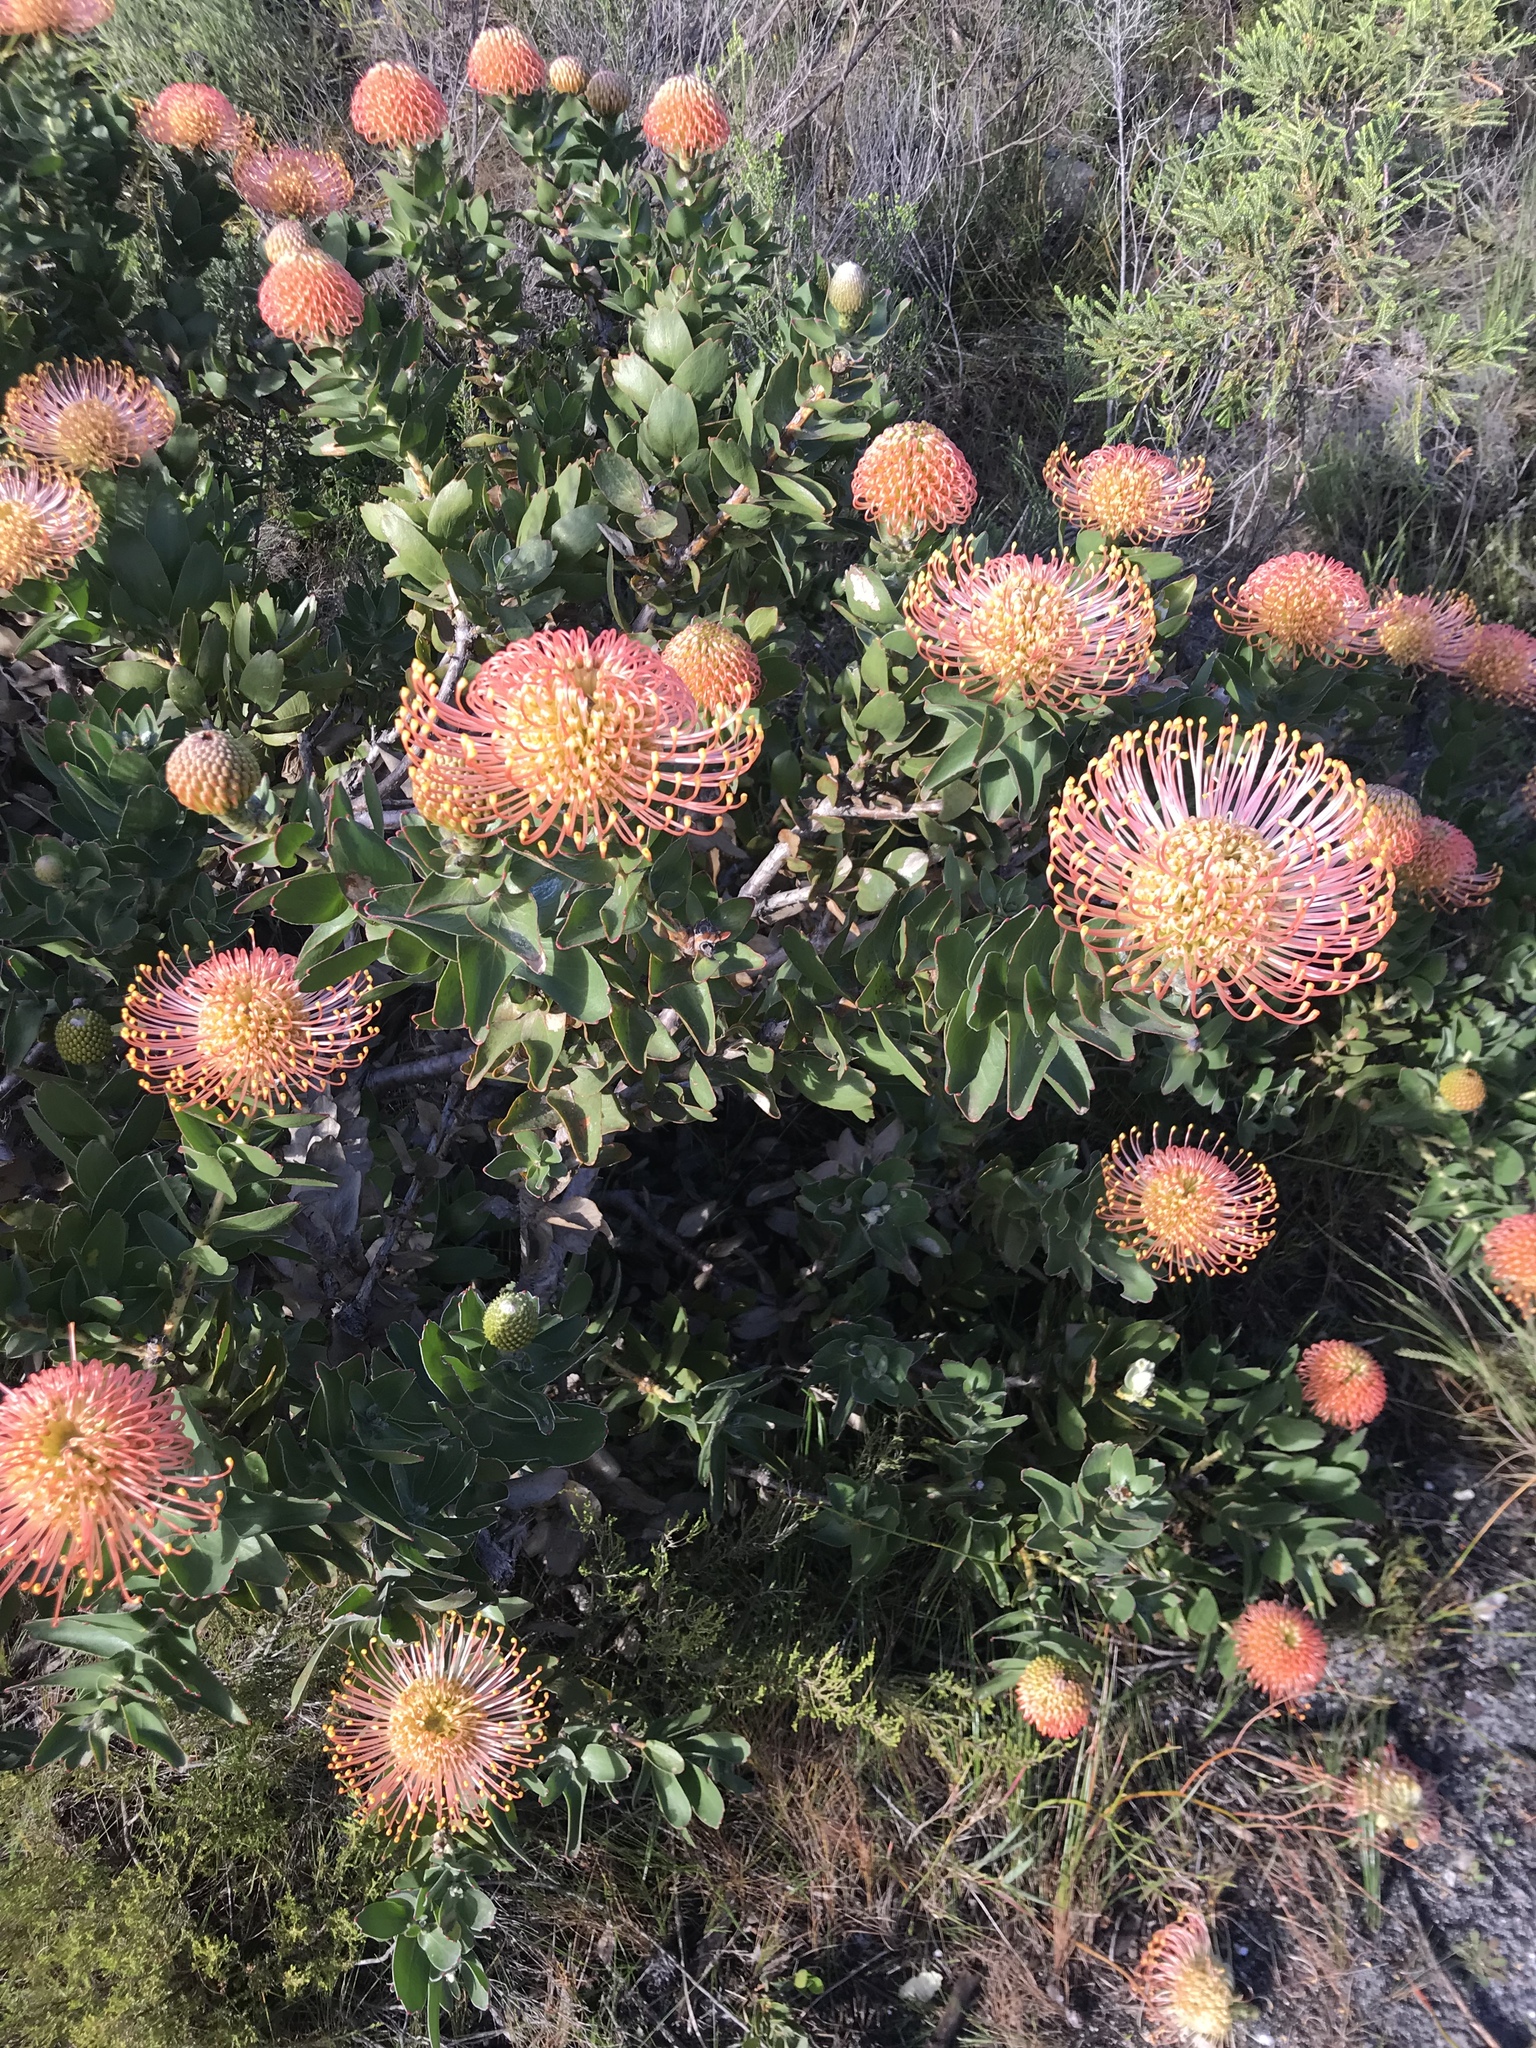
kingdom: Plantae
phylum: Tracheophyta
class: Magnoliopsida
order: Proteales
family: Proteaceae
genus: Leucospermum
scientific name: Leucospermum cordifolium
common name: Red pincushion-protea
